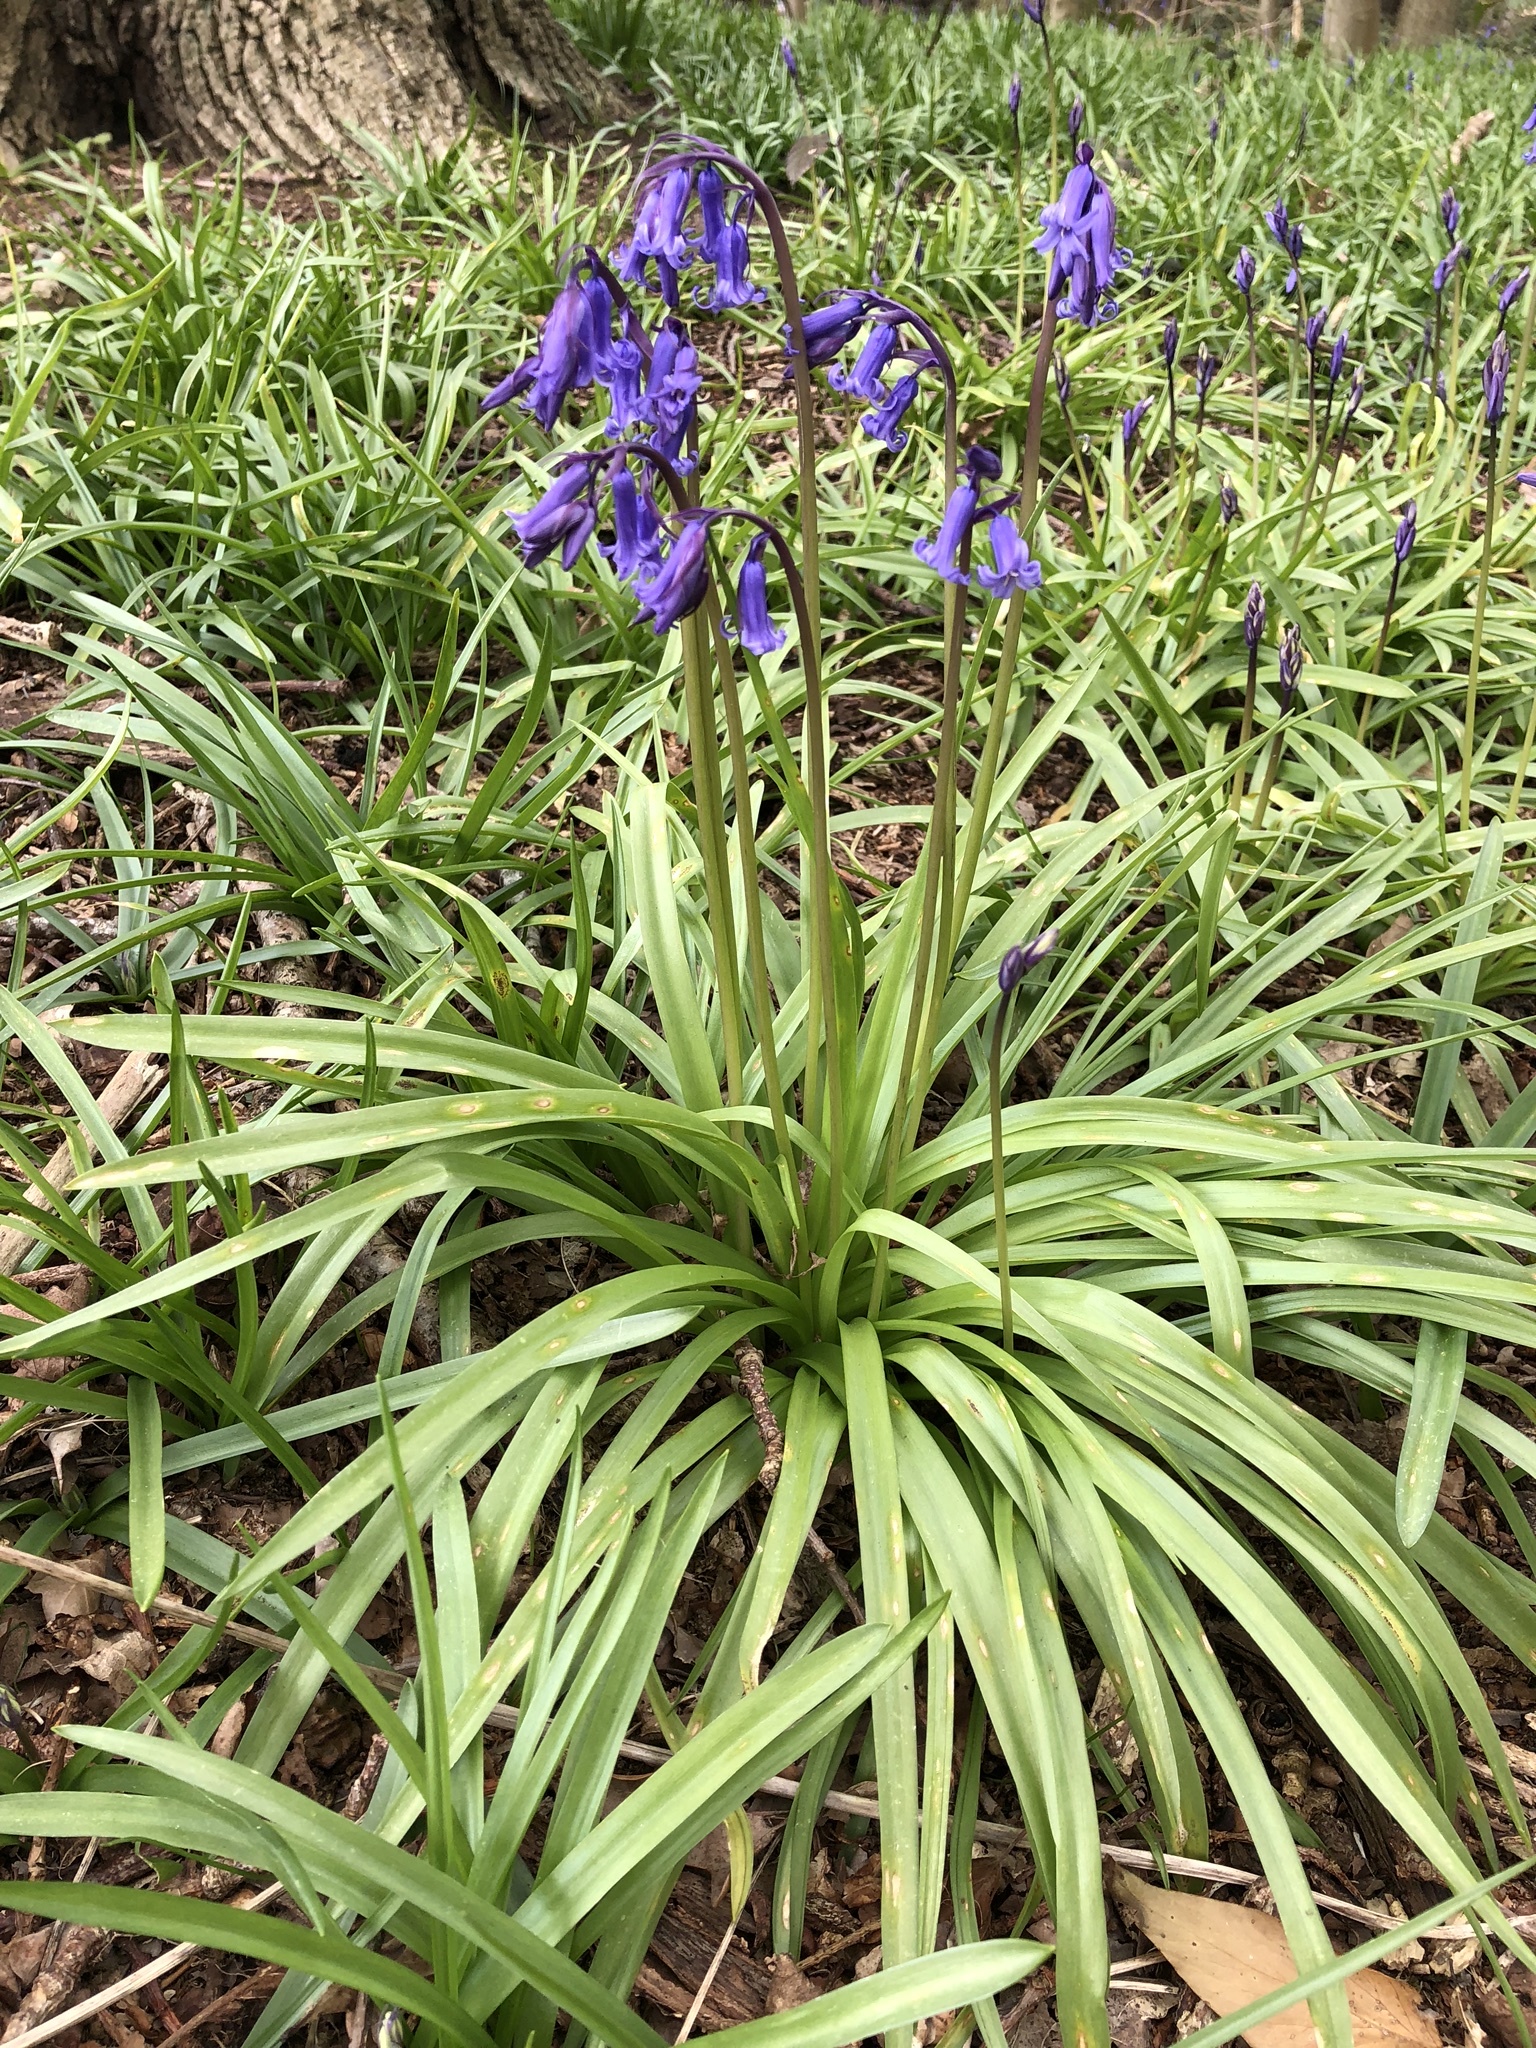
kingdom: Plantae
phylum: Tracheophyta
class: Liliopsida
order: Asparagales
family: Asparagaceae
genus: Hyacinthoides
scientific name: Hyacinthoides non-scripta
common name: Bluebell
